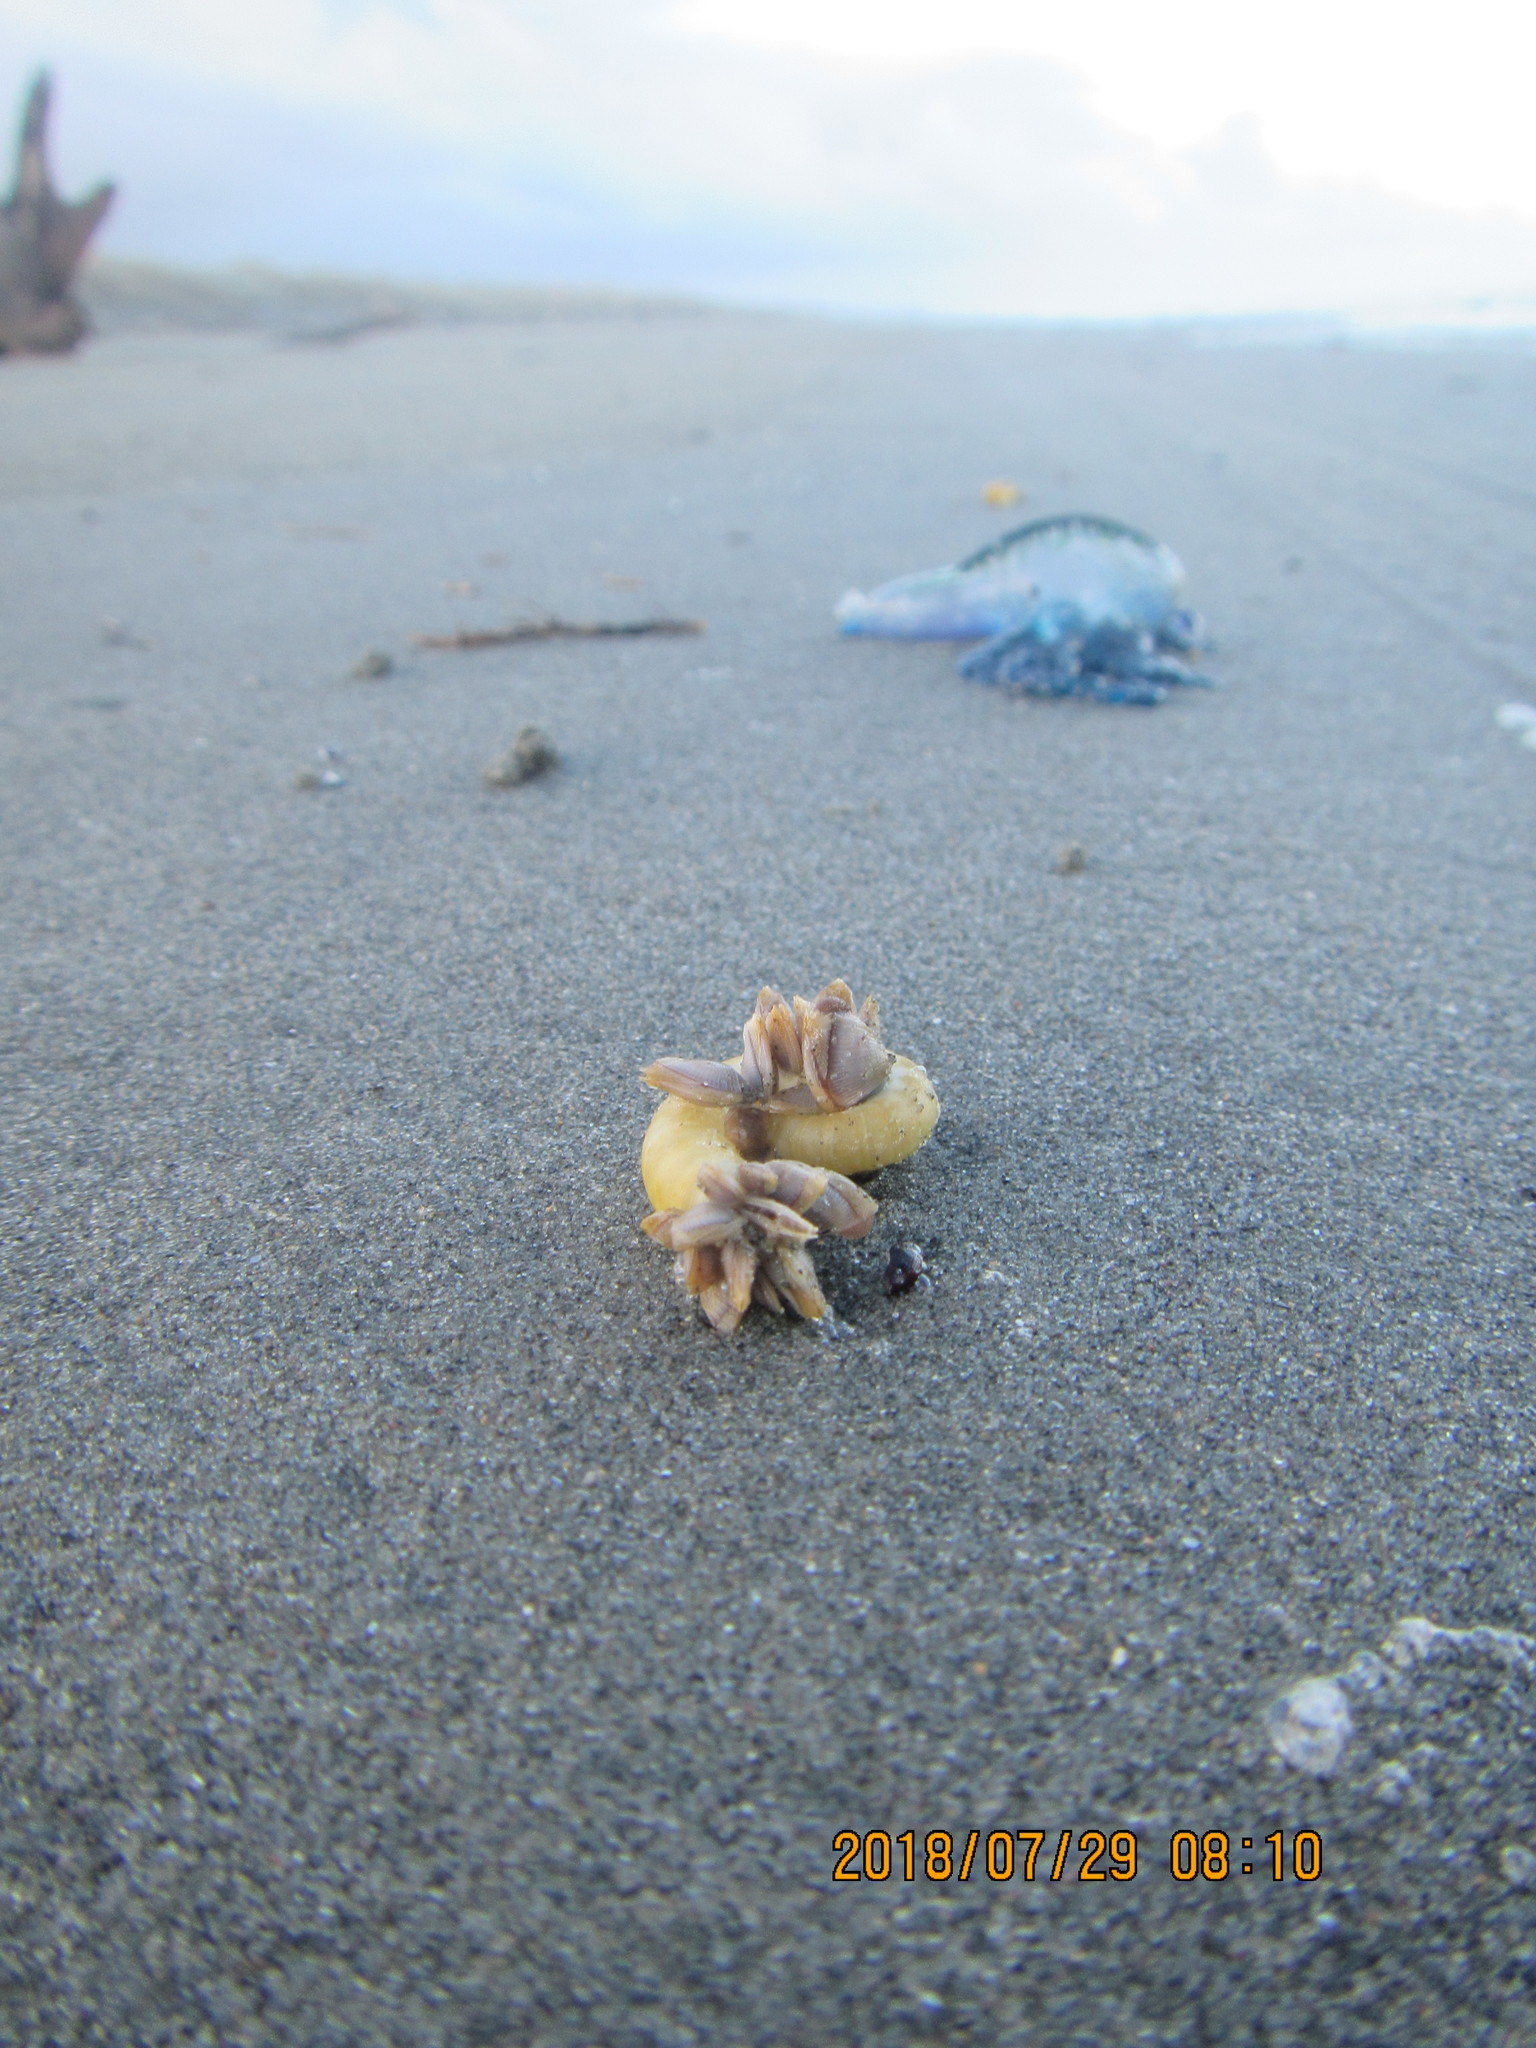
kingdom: Animalia
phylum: Arthropoda
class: Maxillopoda
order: Pedunculata
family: Lepadidae
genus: Lepas
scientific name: Lepas pectinata
